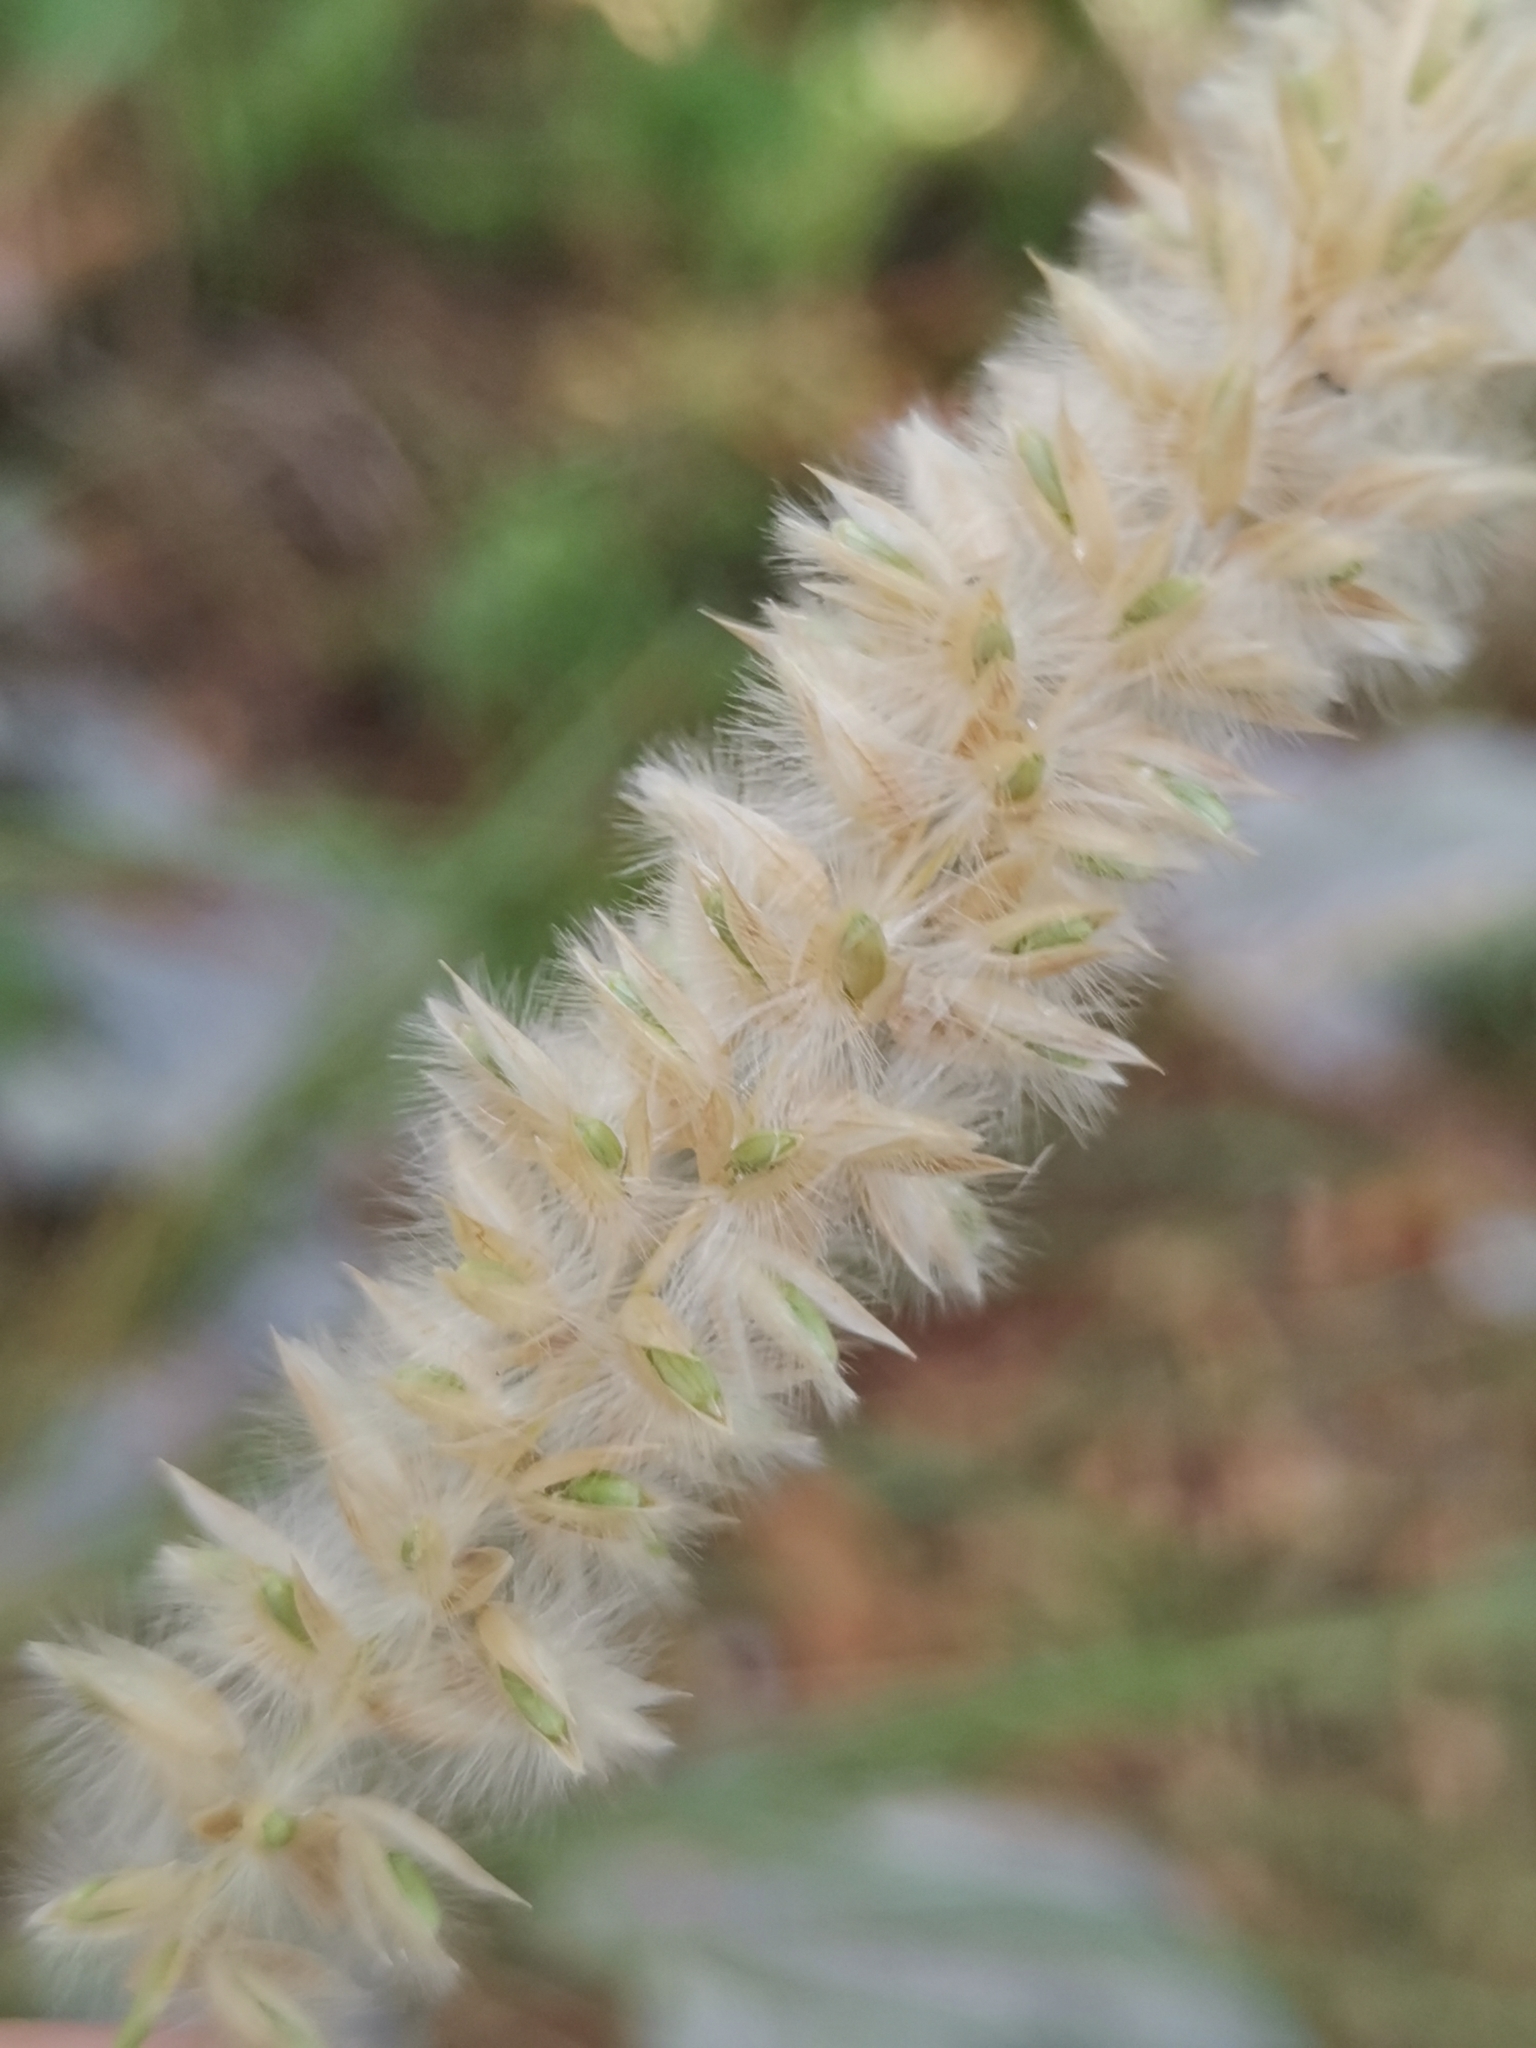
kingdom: Plantae
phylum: Tracheophyta
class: Liliopsida
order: Poales
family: Poaceae
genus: Melica
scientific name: Melica ciliata
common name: Hairy melicgrass
